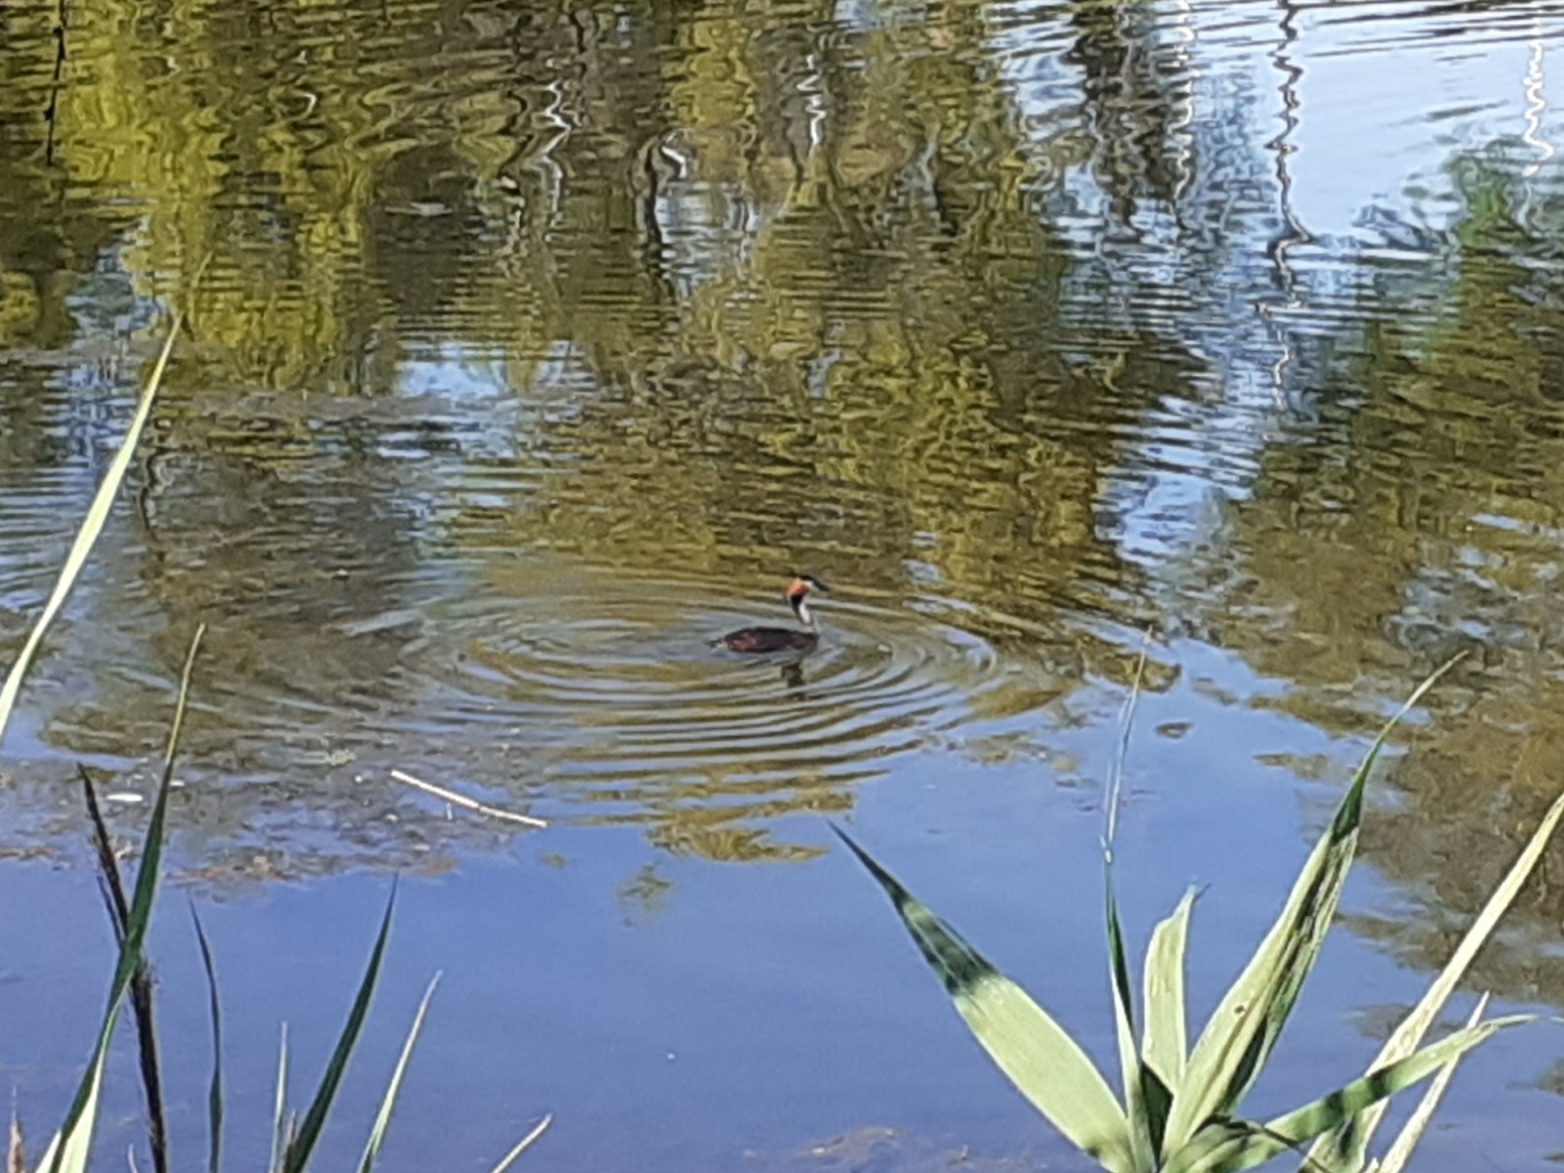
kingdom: Animalia
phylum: Chordata
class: Aves
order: Podicipediformes
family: Podicipedidae
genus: Podiceps
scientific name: Podiceps cristatus
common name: Great crested grebe
